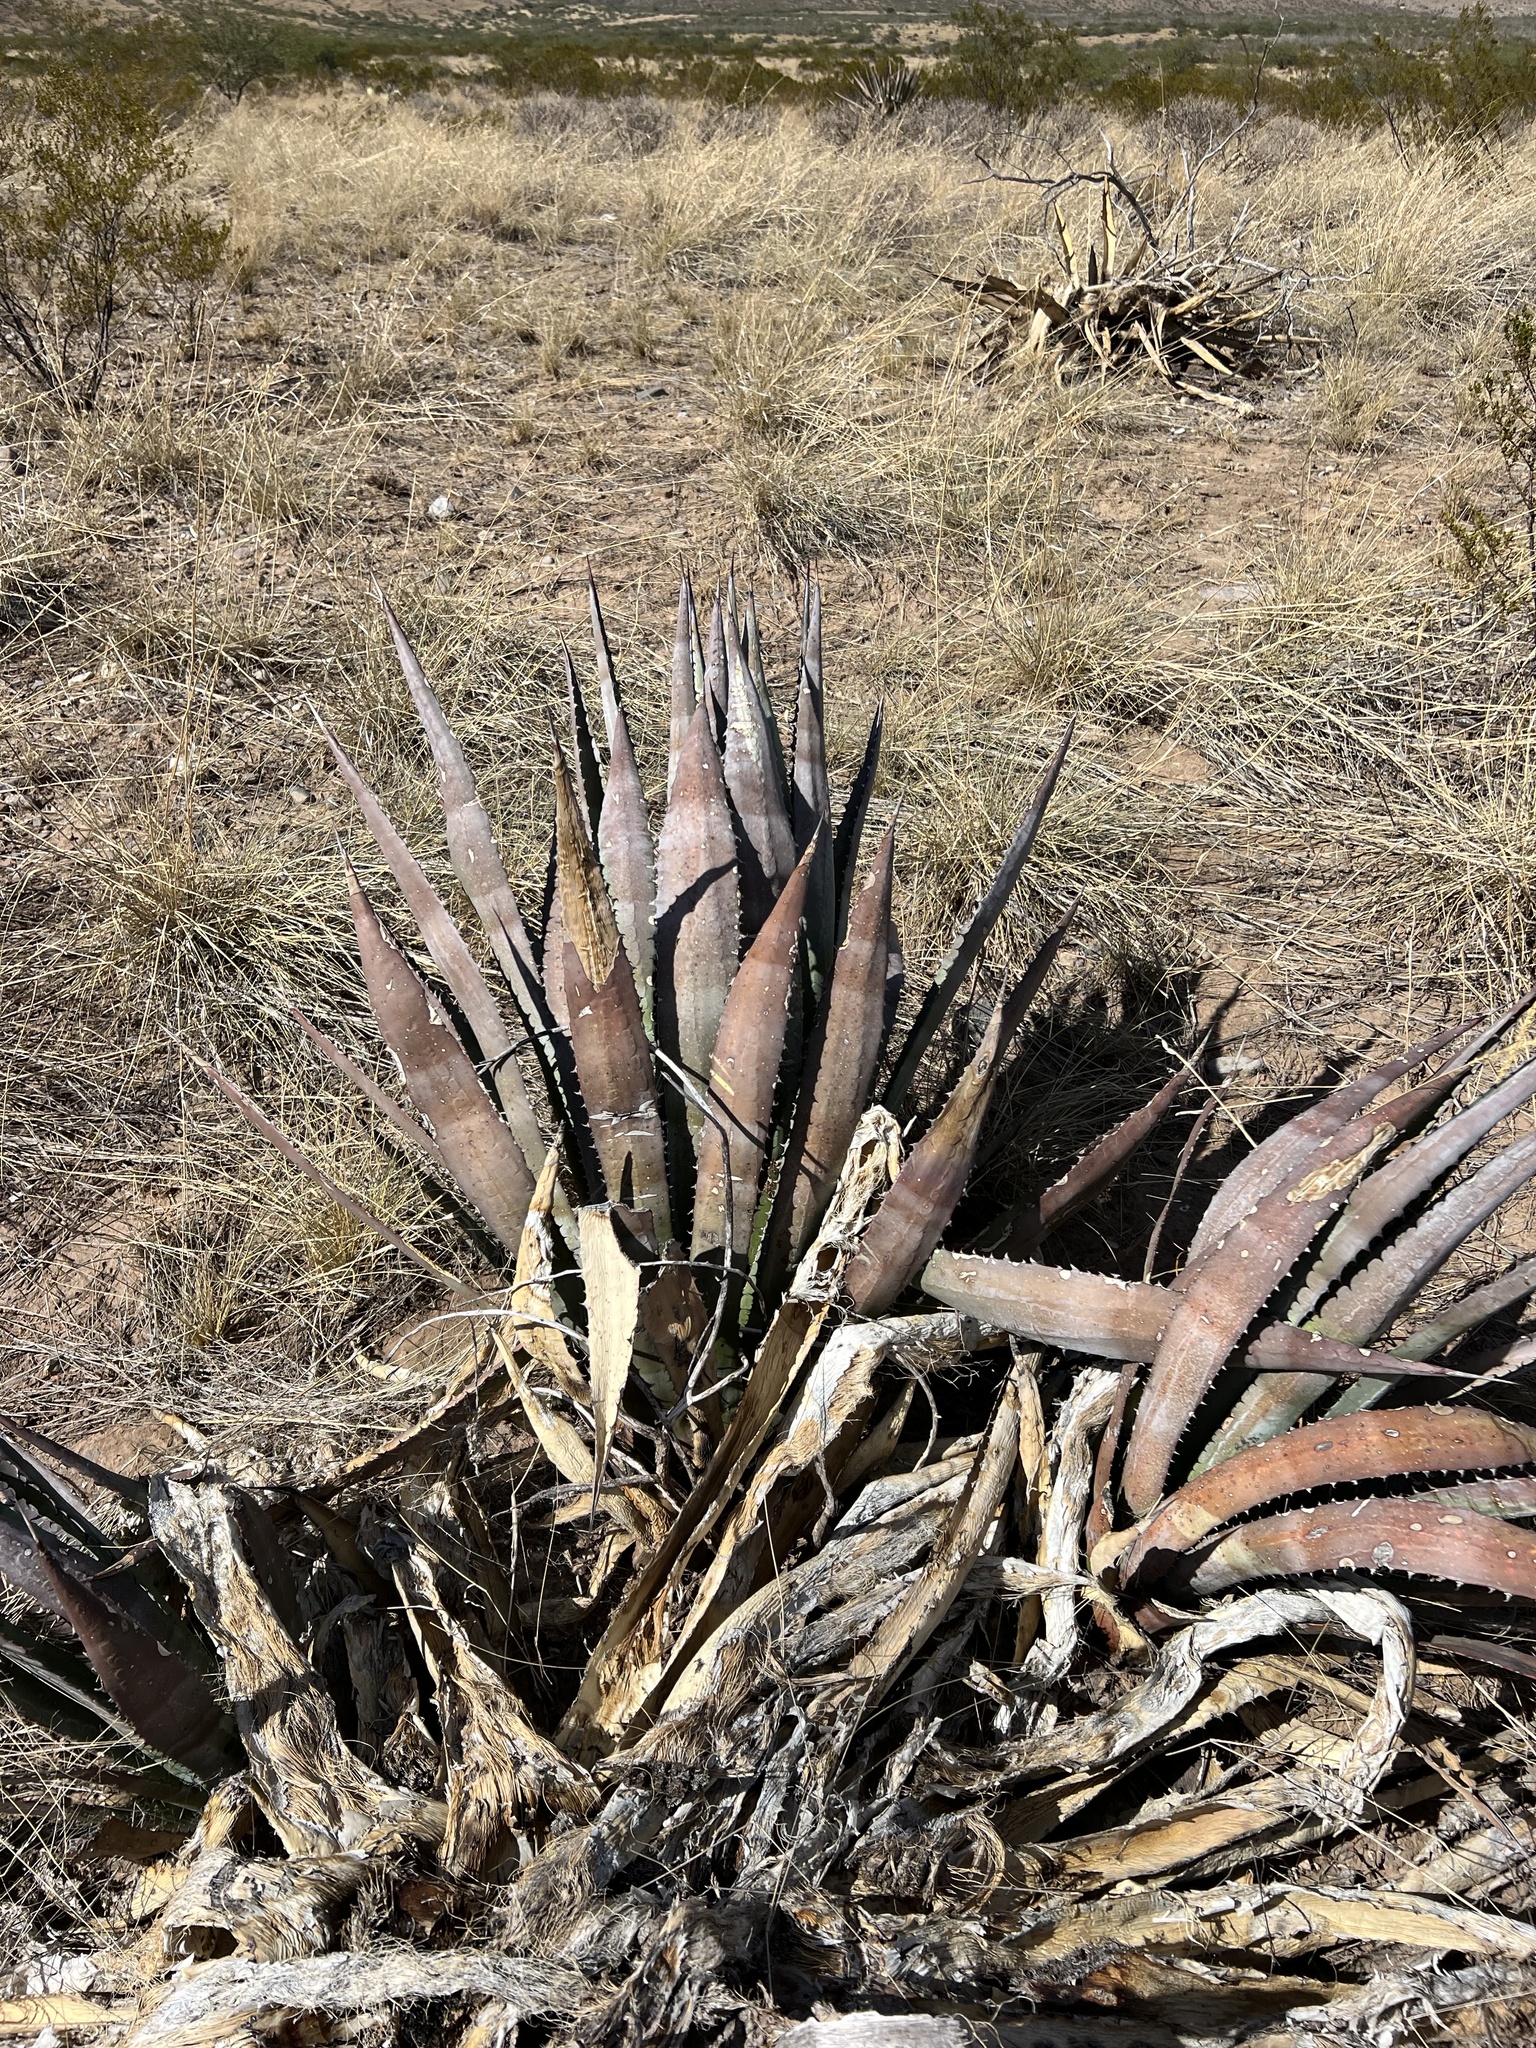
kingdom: Plantae
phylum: Tracheophyta
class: Liliopsida
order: Asparagales
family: Asparagaceae
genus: Agave
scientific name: Agave palmeri
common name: Palmer agave
